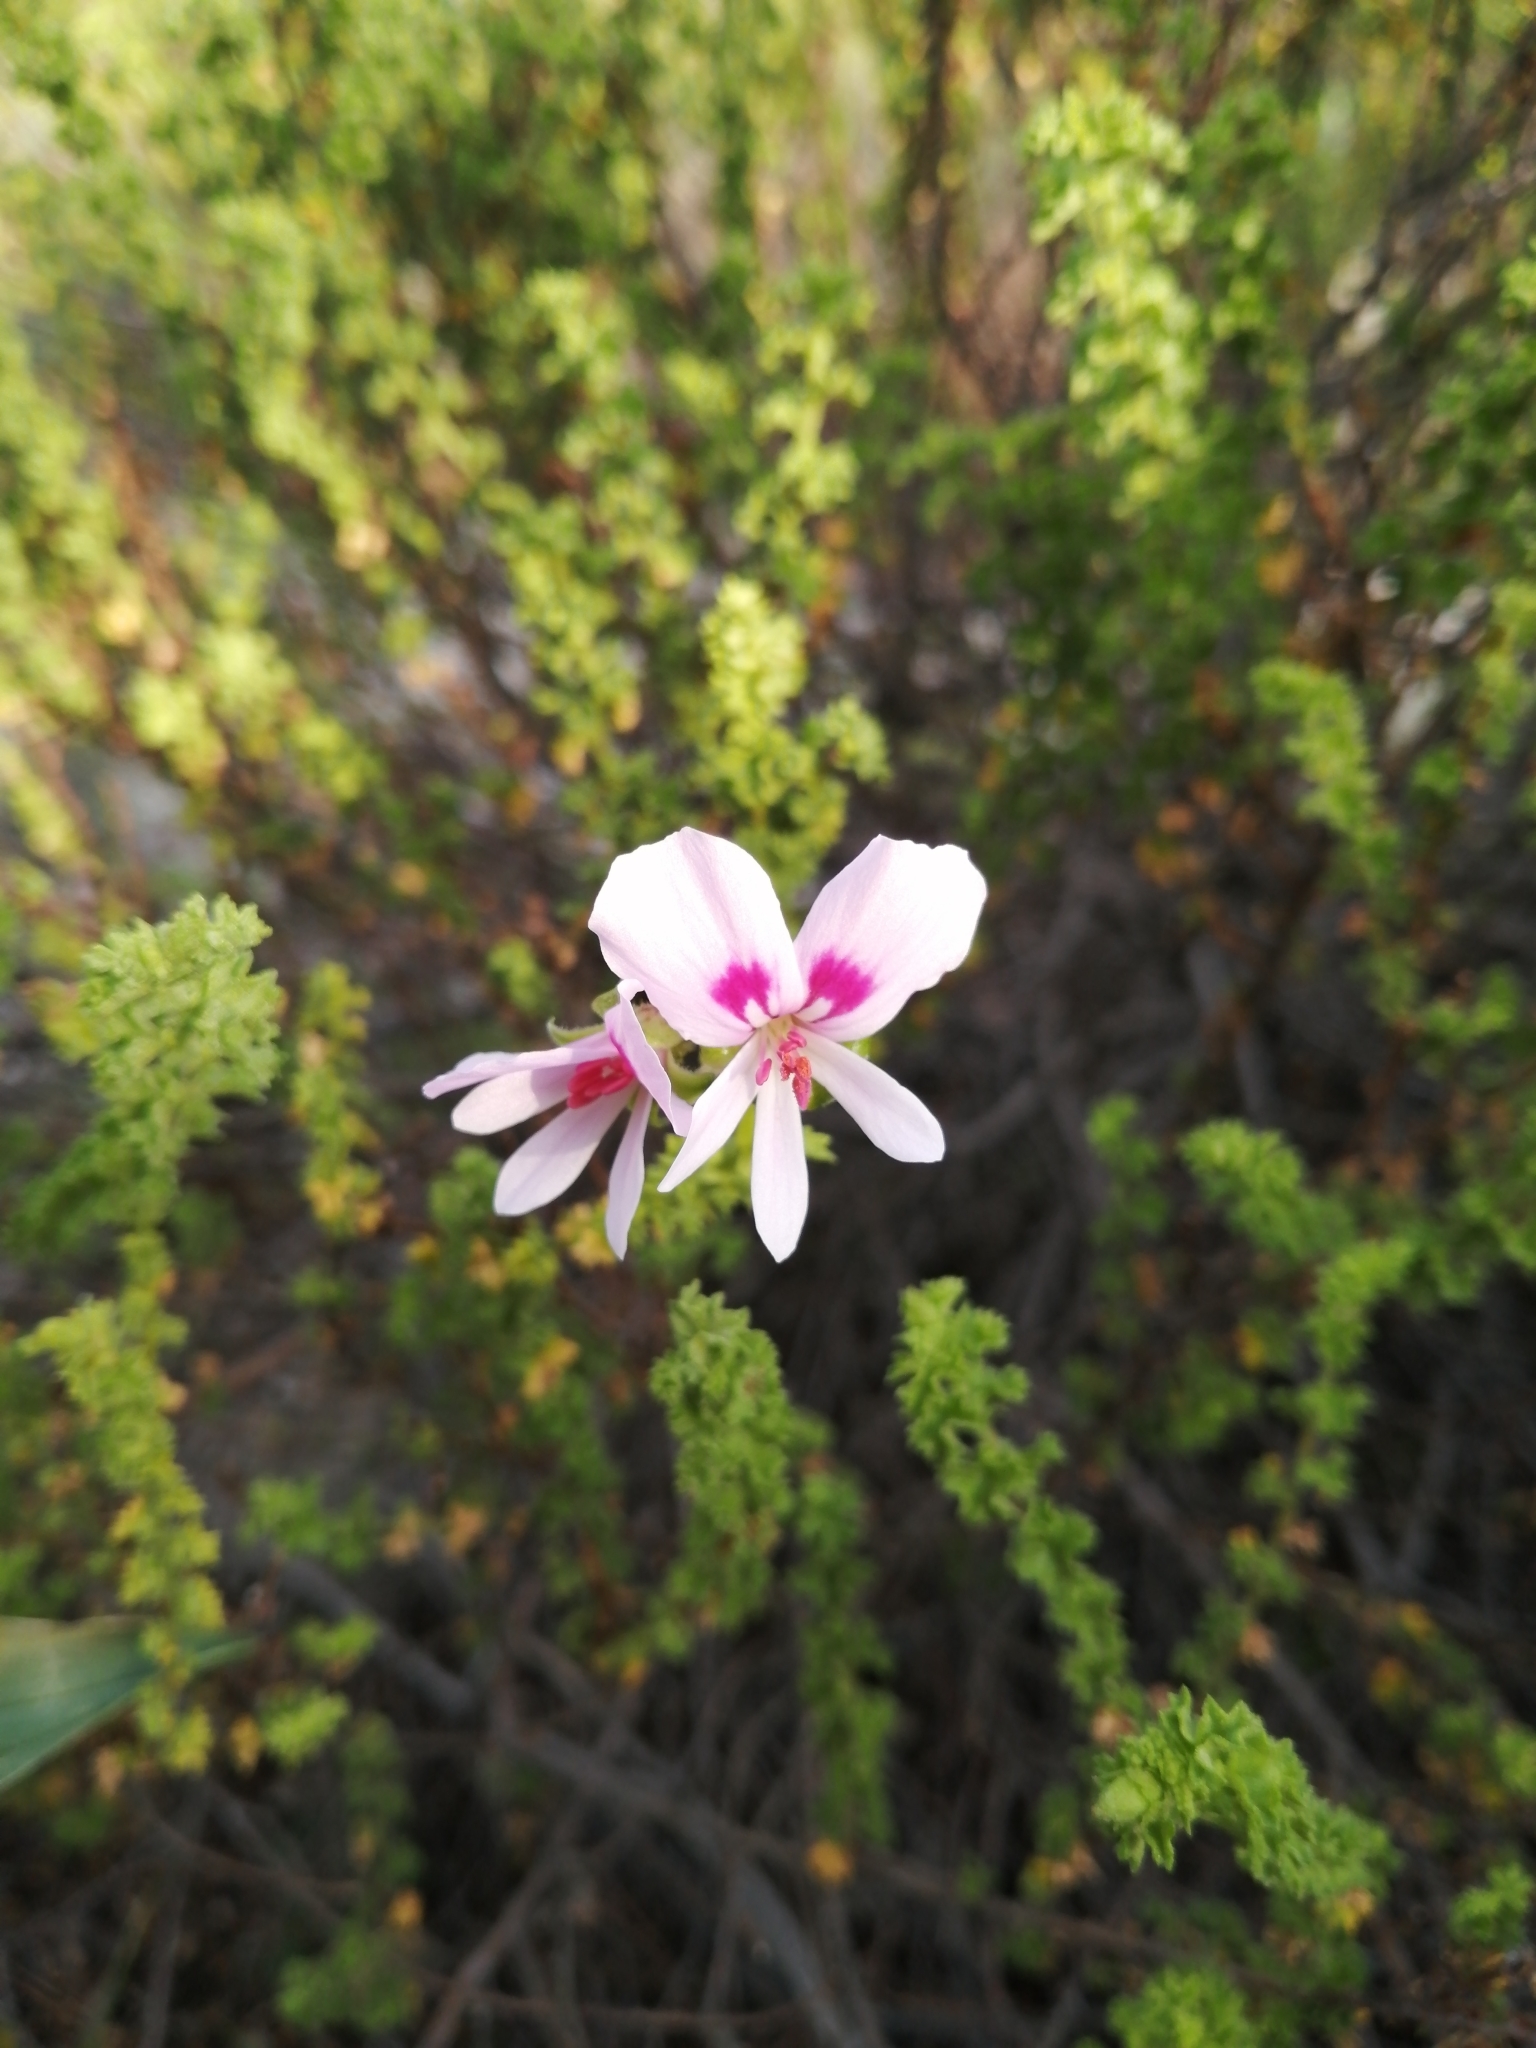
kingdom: Plantae
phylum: Tracheophyta
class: Magnoliopsida
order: Geraniales
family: Geraniaceae
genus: Pelargonium
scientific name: Pelargonium crispum
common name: Crisped-leaf pelargonium
